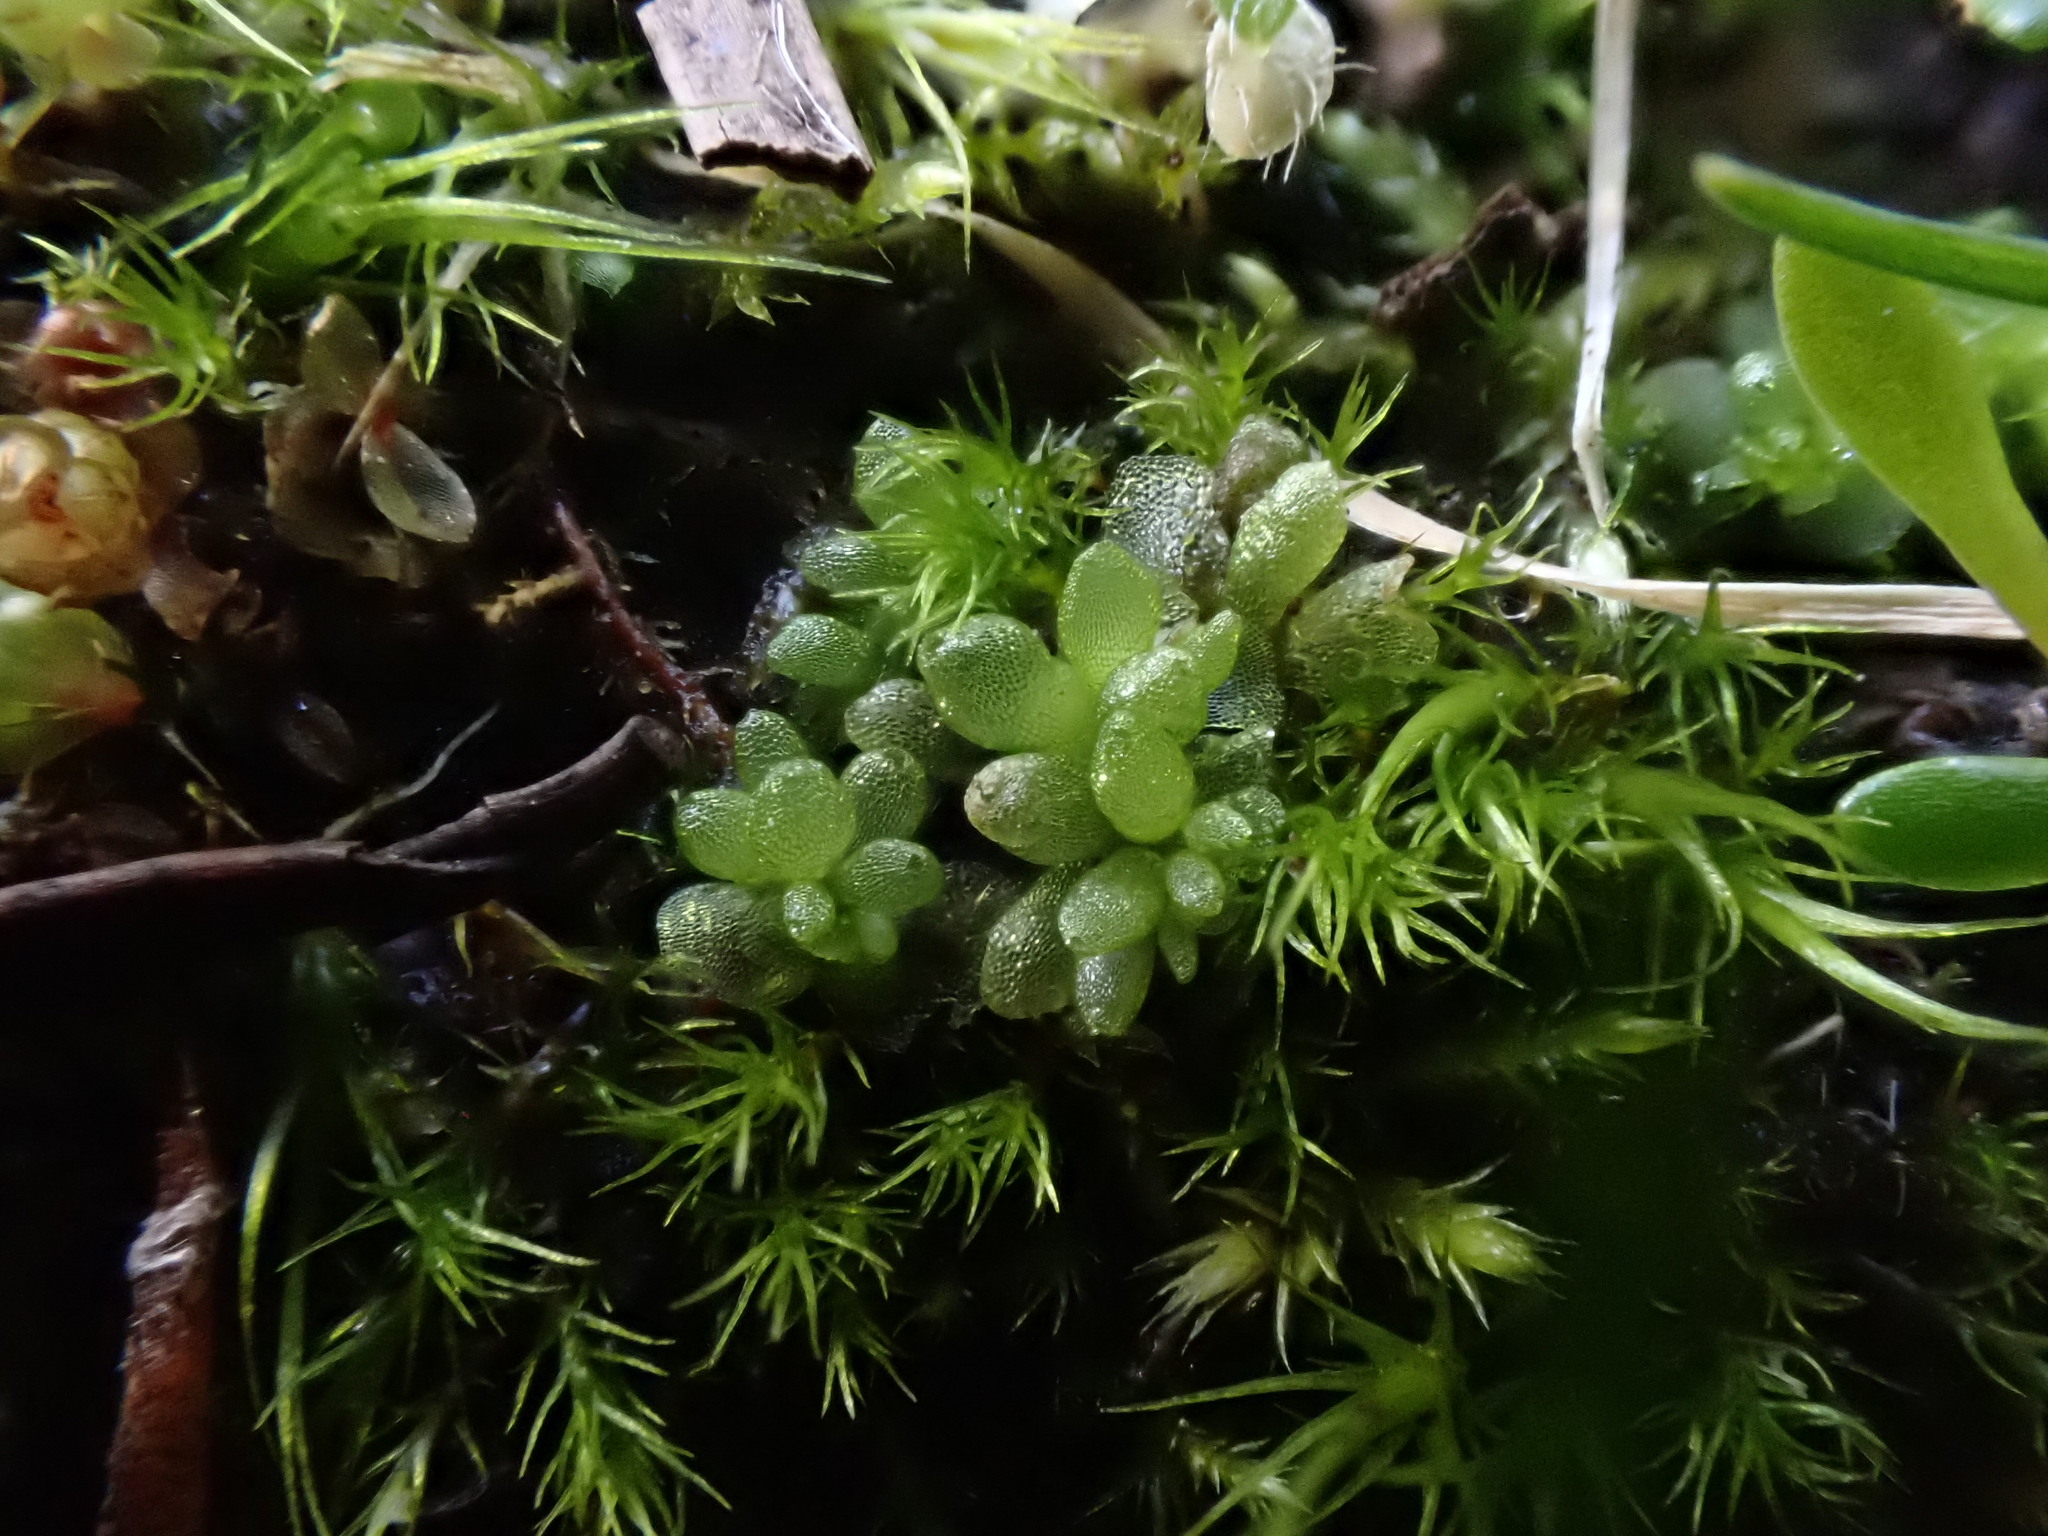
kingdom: Plantae
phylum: Marchantiophyta
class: Marchantiopsida
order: Sphaerocarpales
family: Sphaerocarpaceae
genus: Sphaerocarpos
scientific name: Sphaerocarpos texanus
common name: Texas balloonwort
